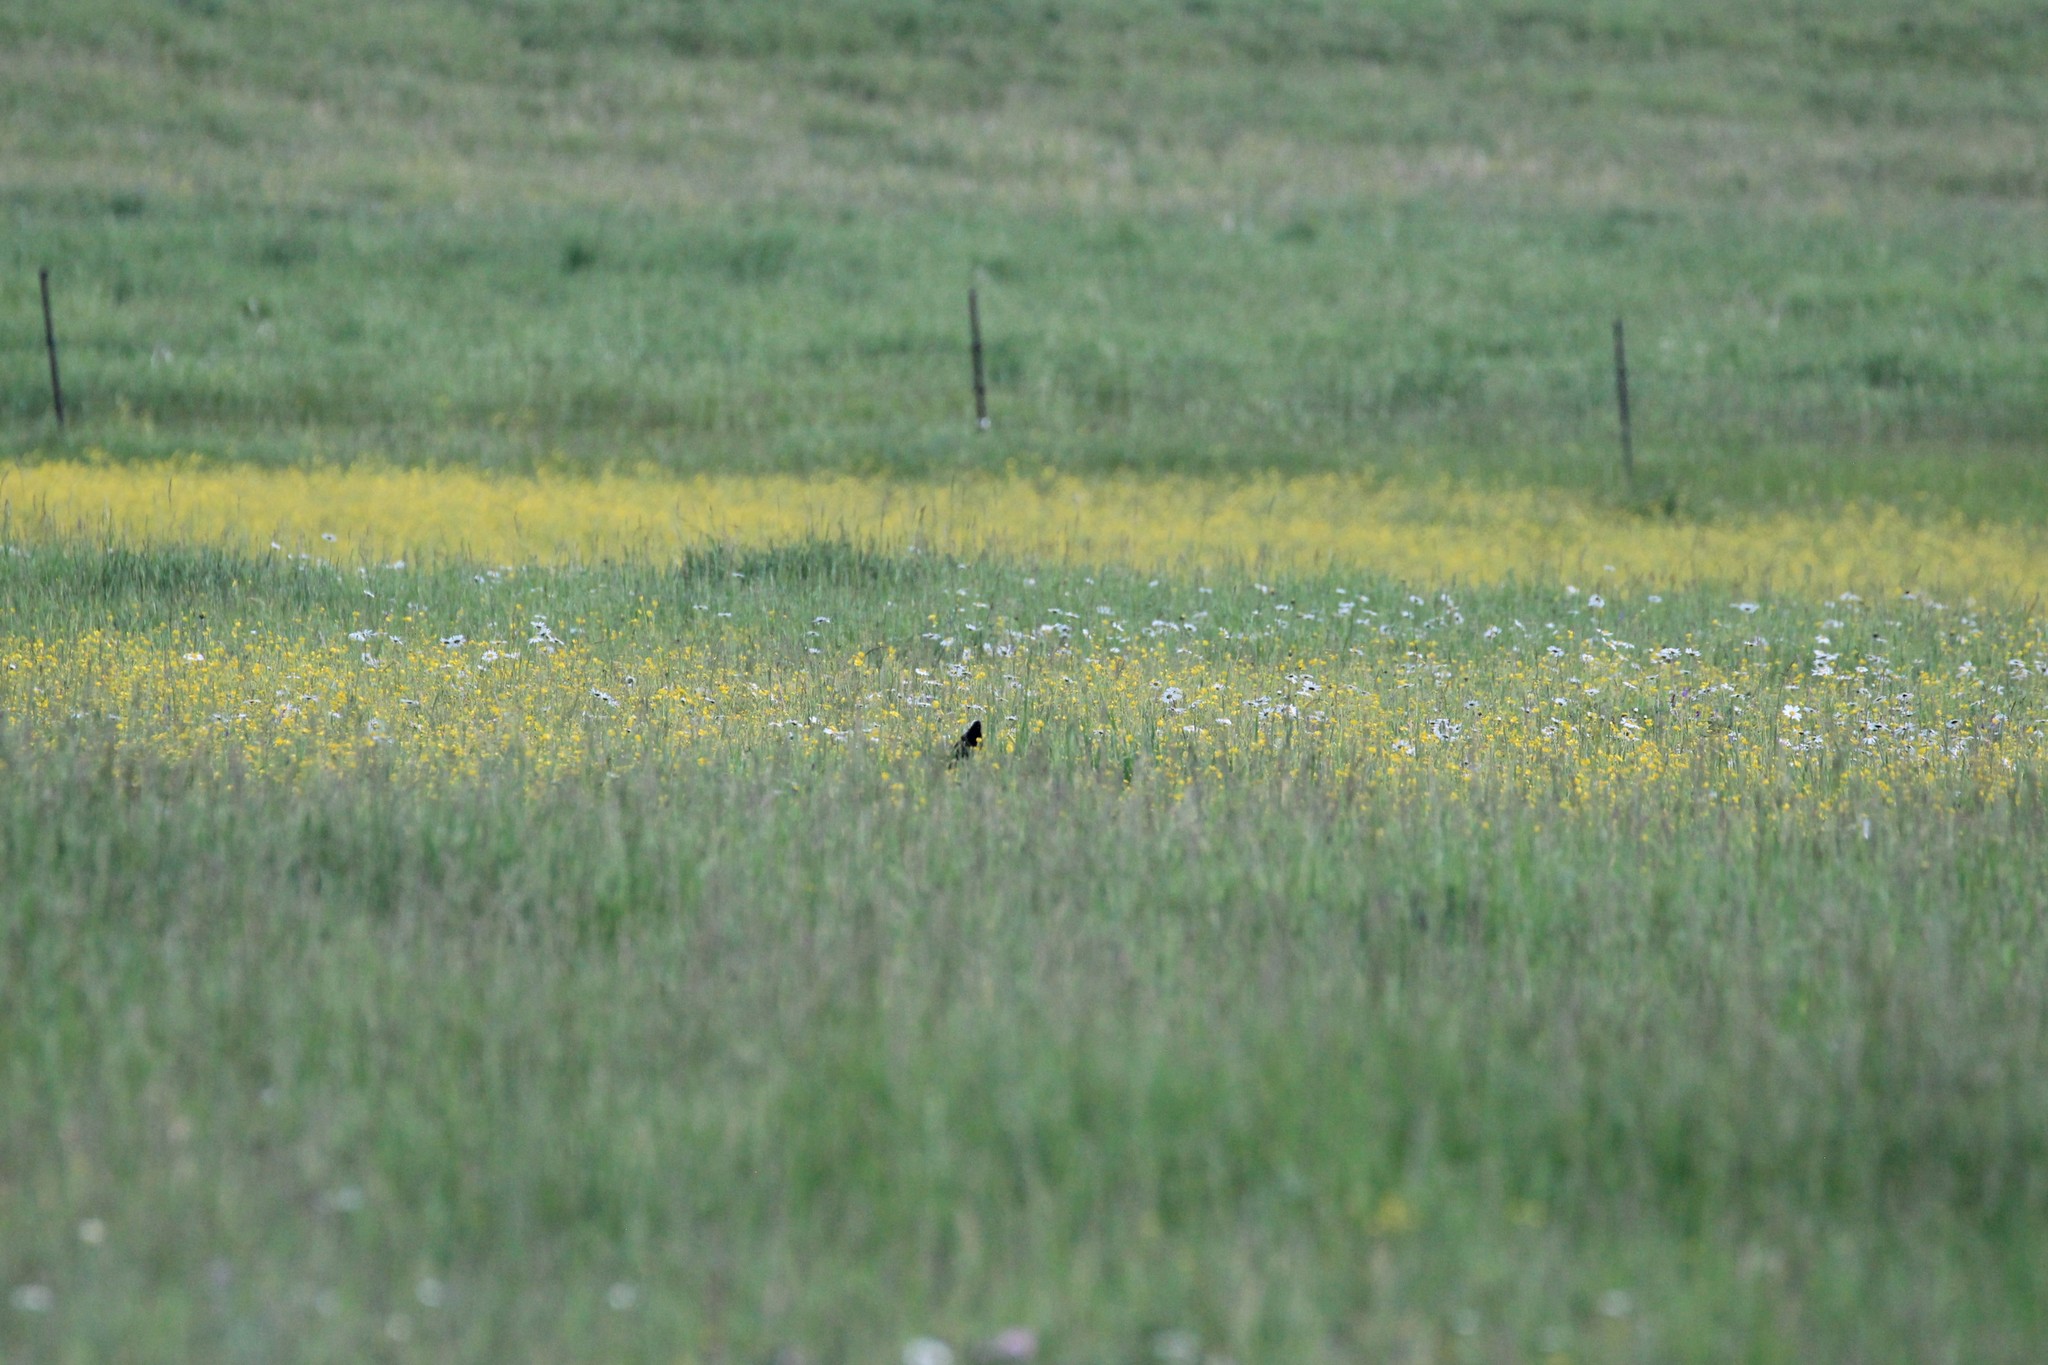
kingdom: Animalia
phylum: Chordata
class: Aves
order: Passeriformes
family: Icteridae
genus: Dolichonyx
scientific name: Dolichonyx oryzivorus
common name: Bobolink
